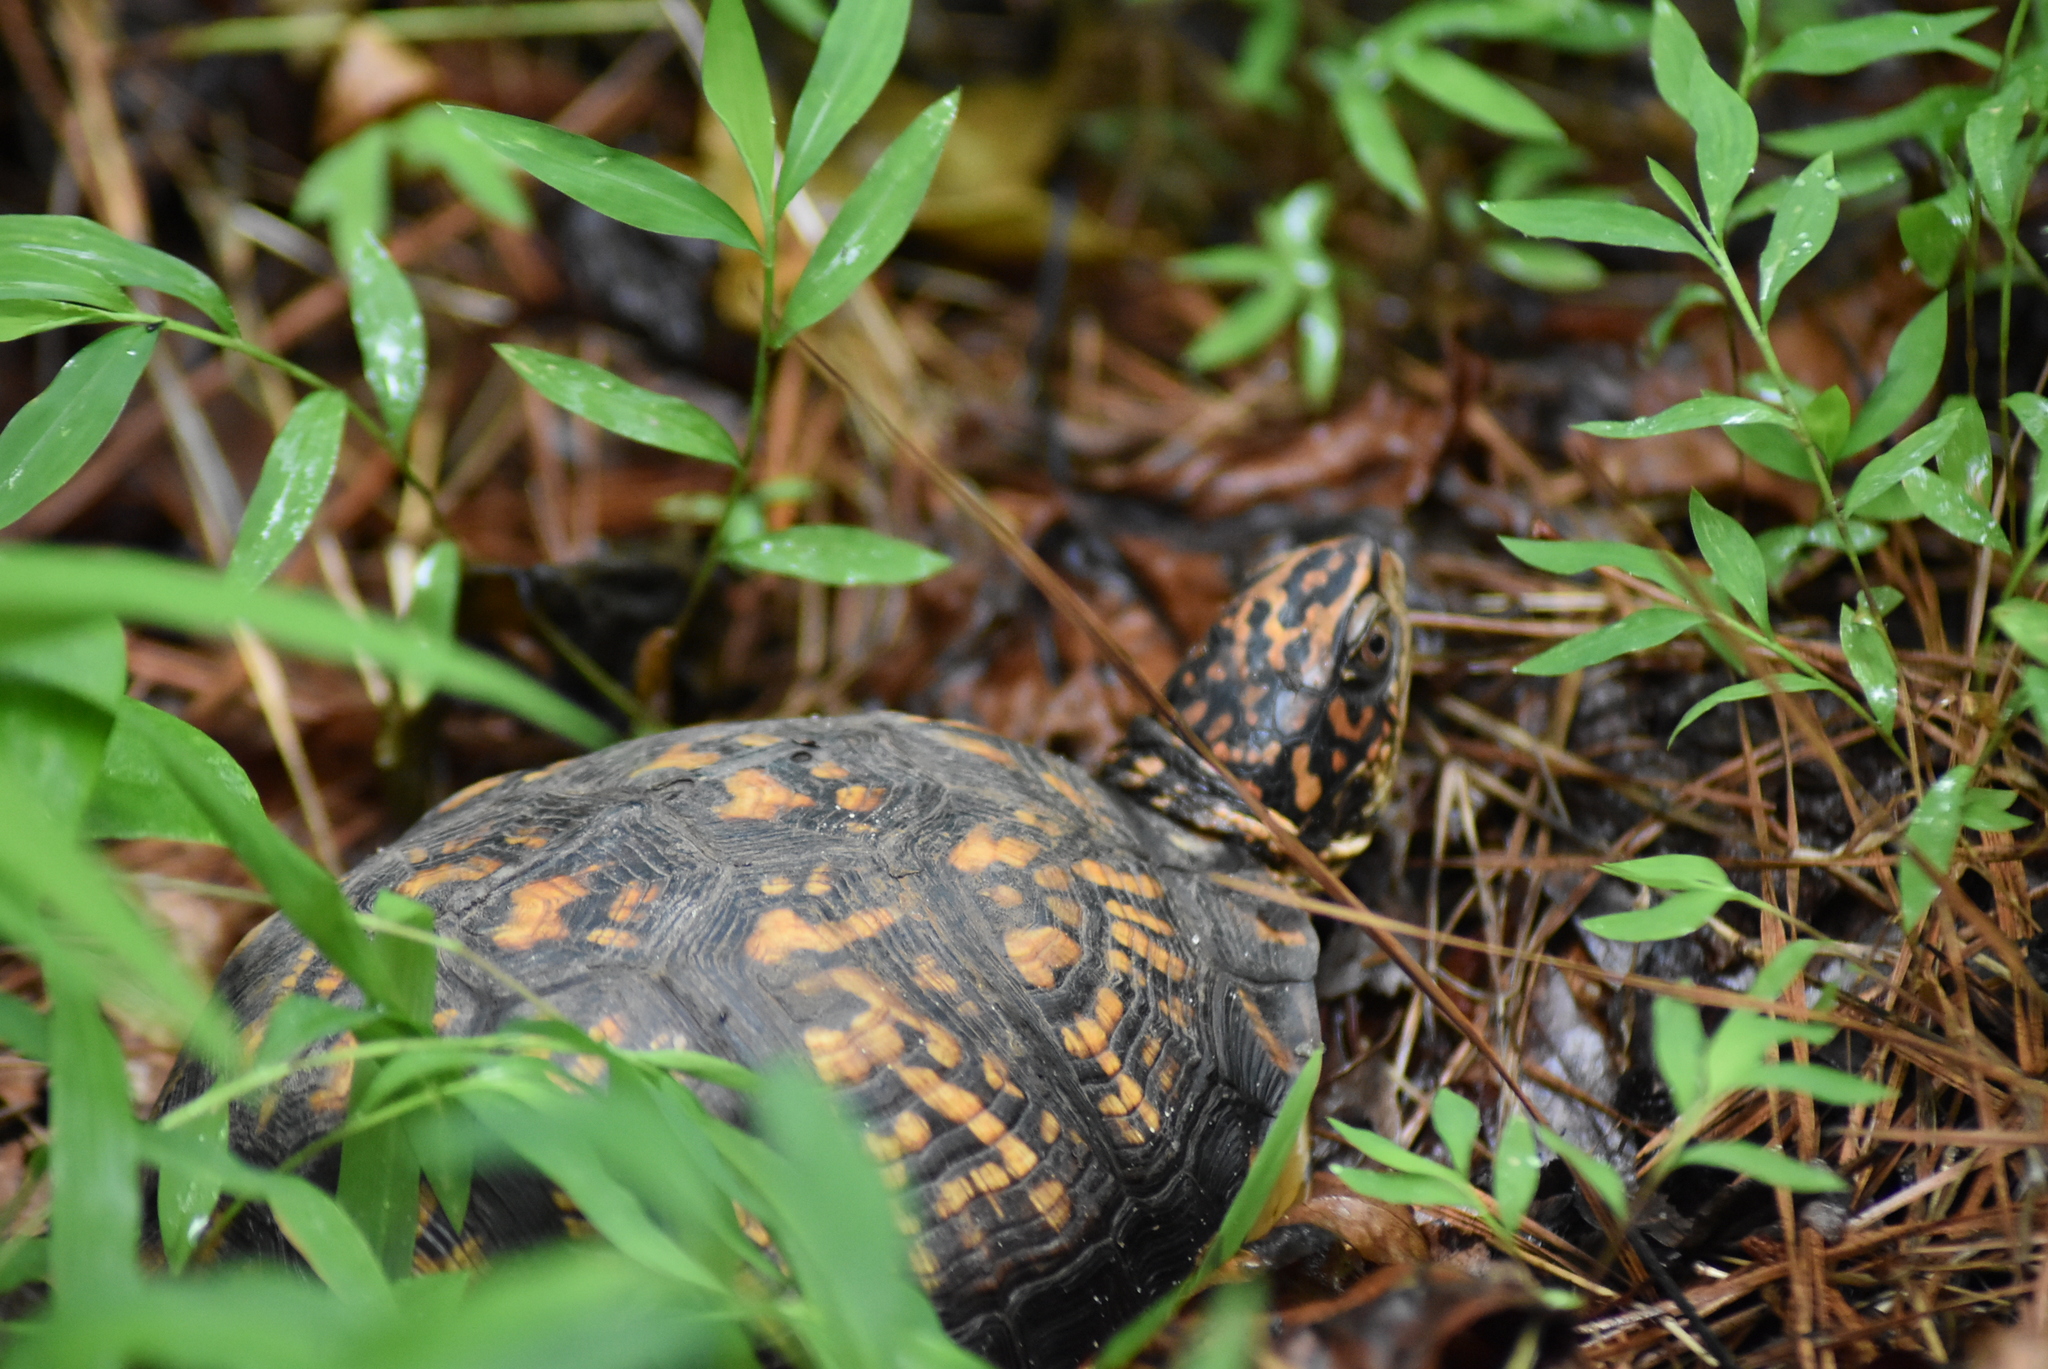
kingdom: Animalia
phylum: Chordata
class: Testudines
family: Emydidae
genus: Terrapene
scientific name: Terrapene carolina
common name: Common box turtle
